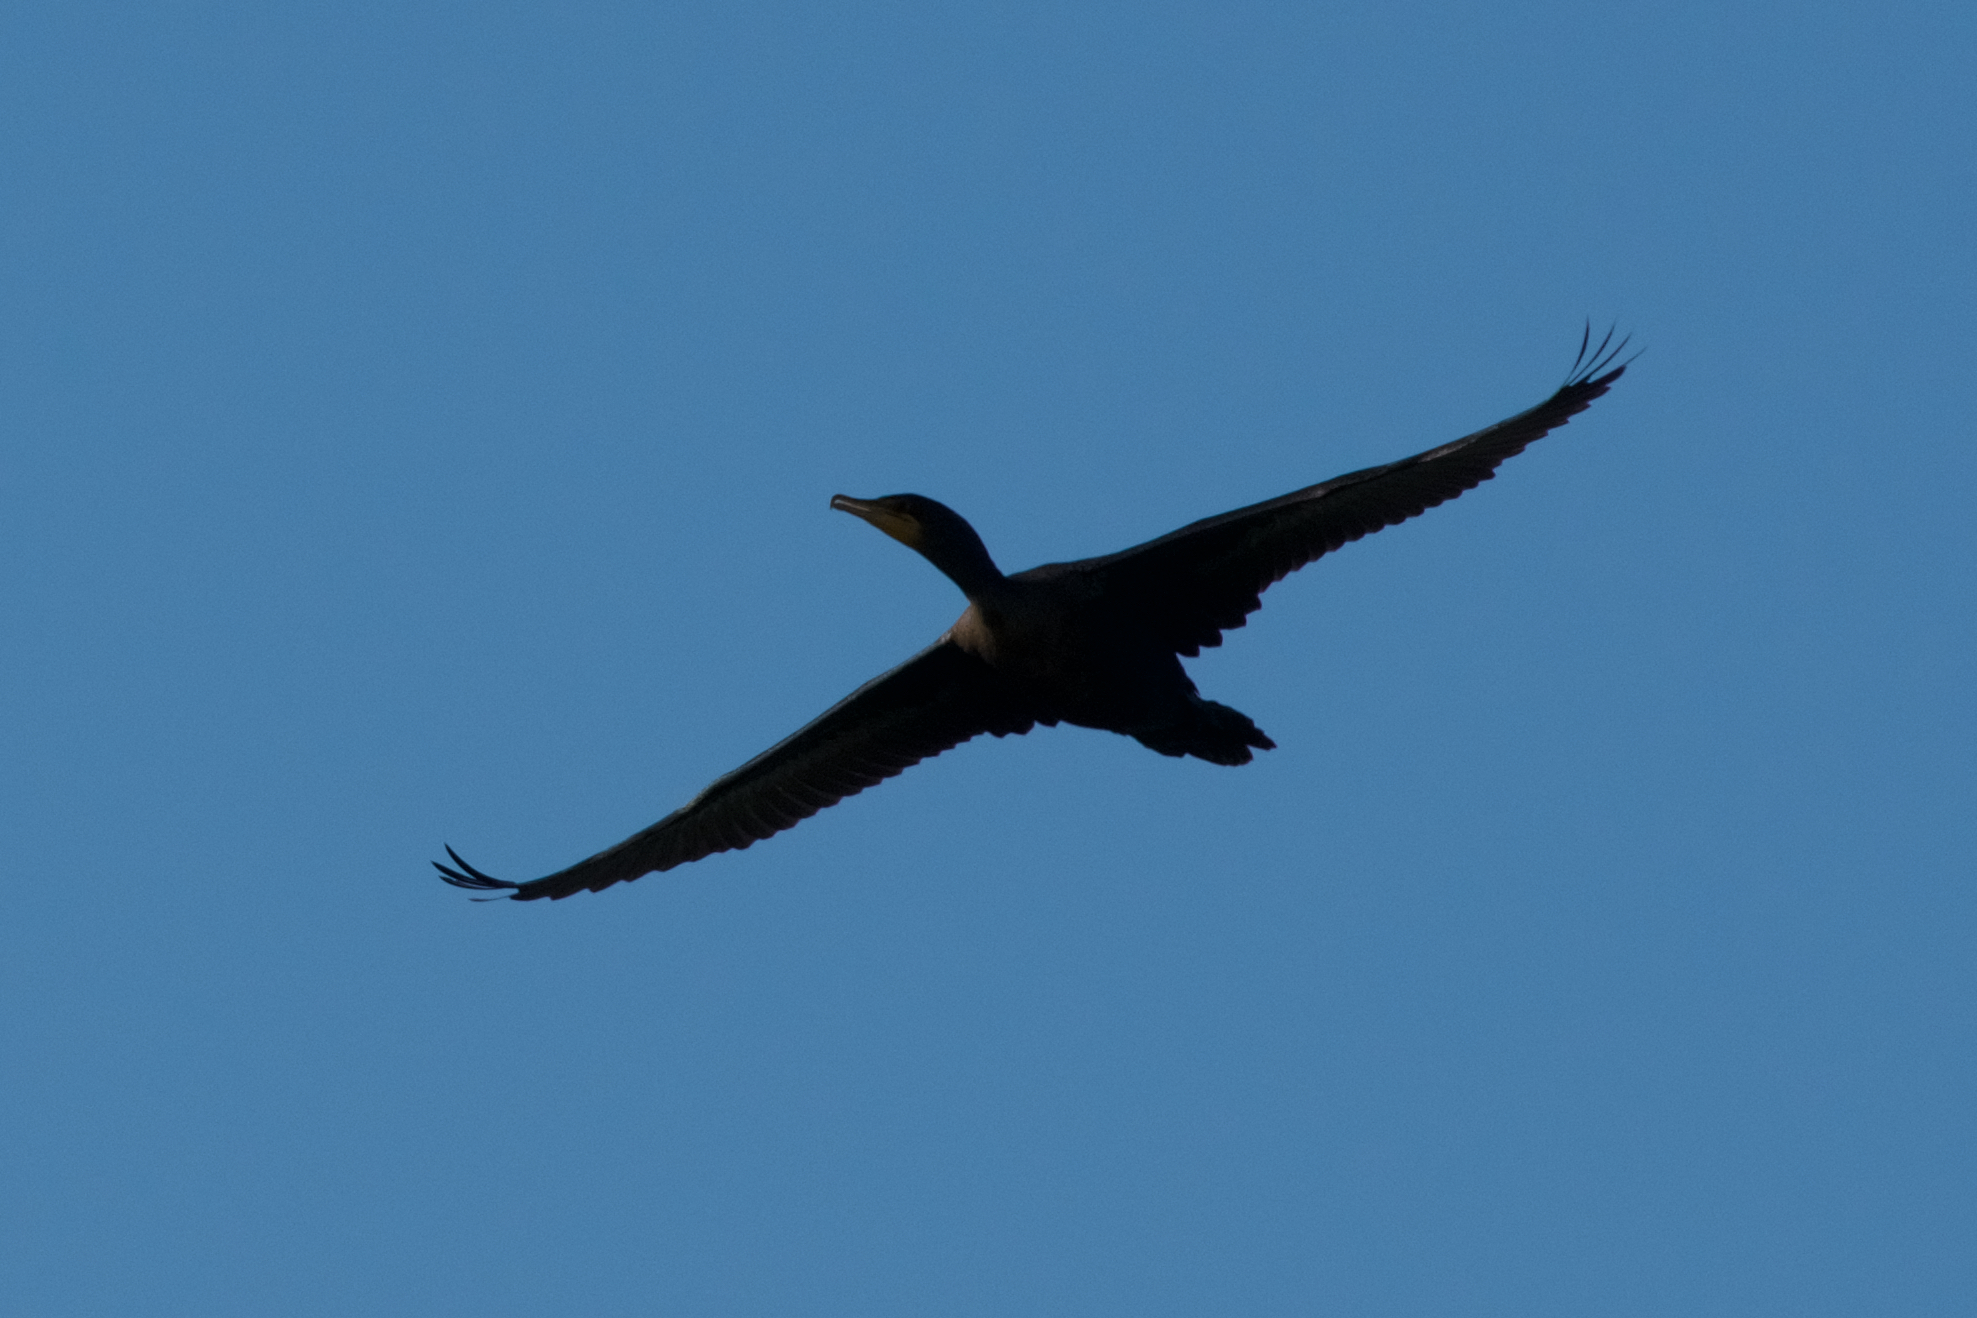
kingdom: Animalia
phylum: Chordata
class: Aves
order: Suliformes
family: Phalacrocoracidae
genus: Phalacrocorax
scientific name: Phalacrocorax auritus
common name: Double-crested cormorant
